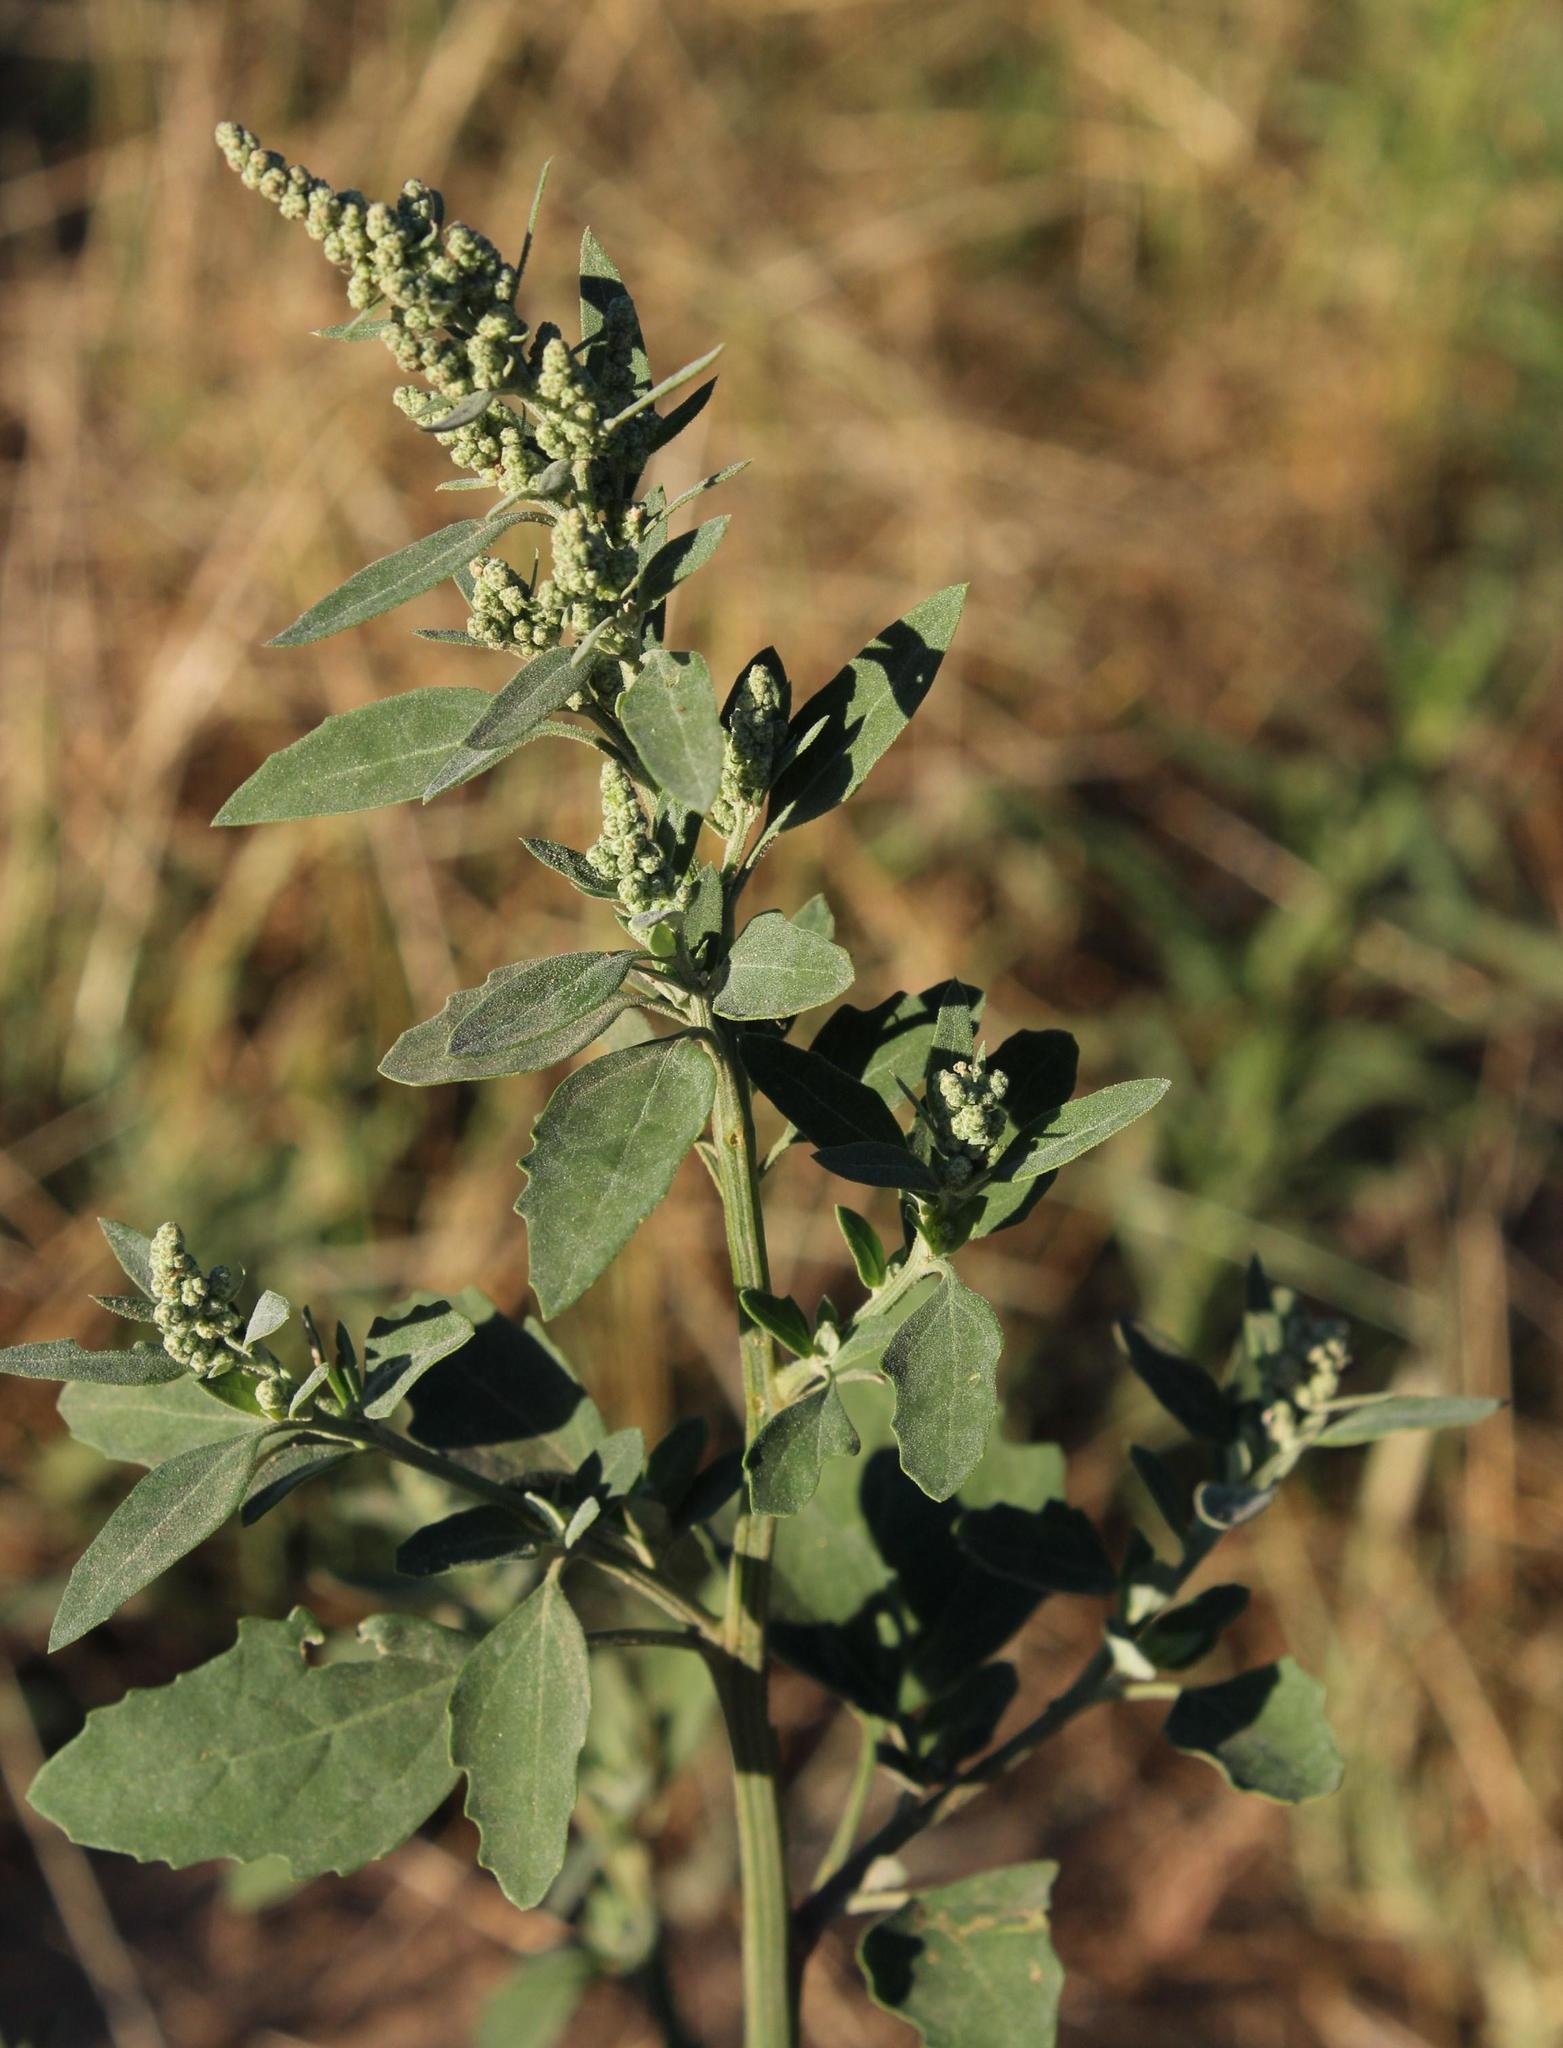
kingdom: Plantae
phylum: Tracheophyta
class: Magnoliopsida
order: Caryophyllales
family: Amaranthaceae
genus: Chenopodium
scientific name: Chenopodium album
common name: Fat-hen
